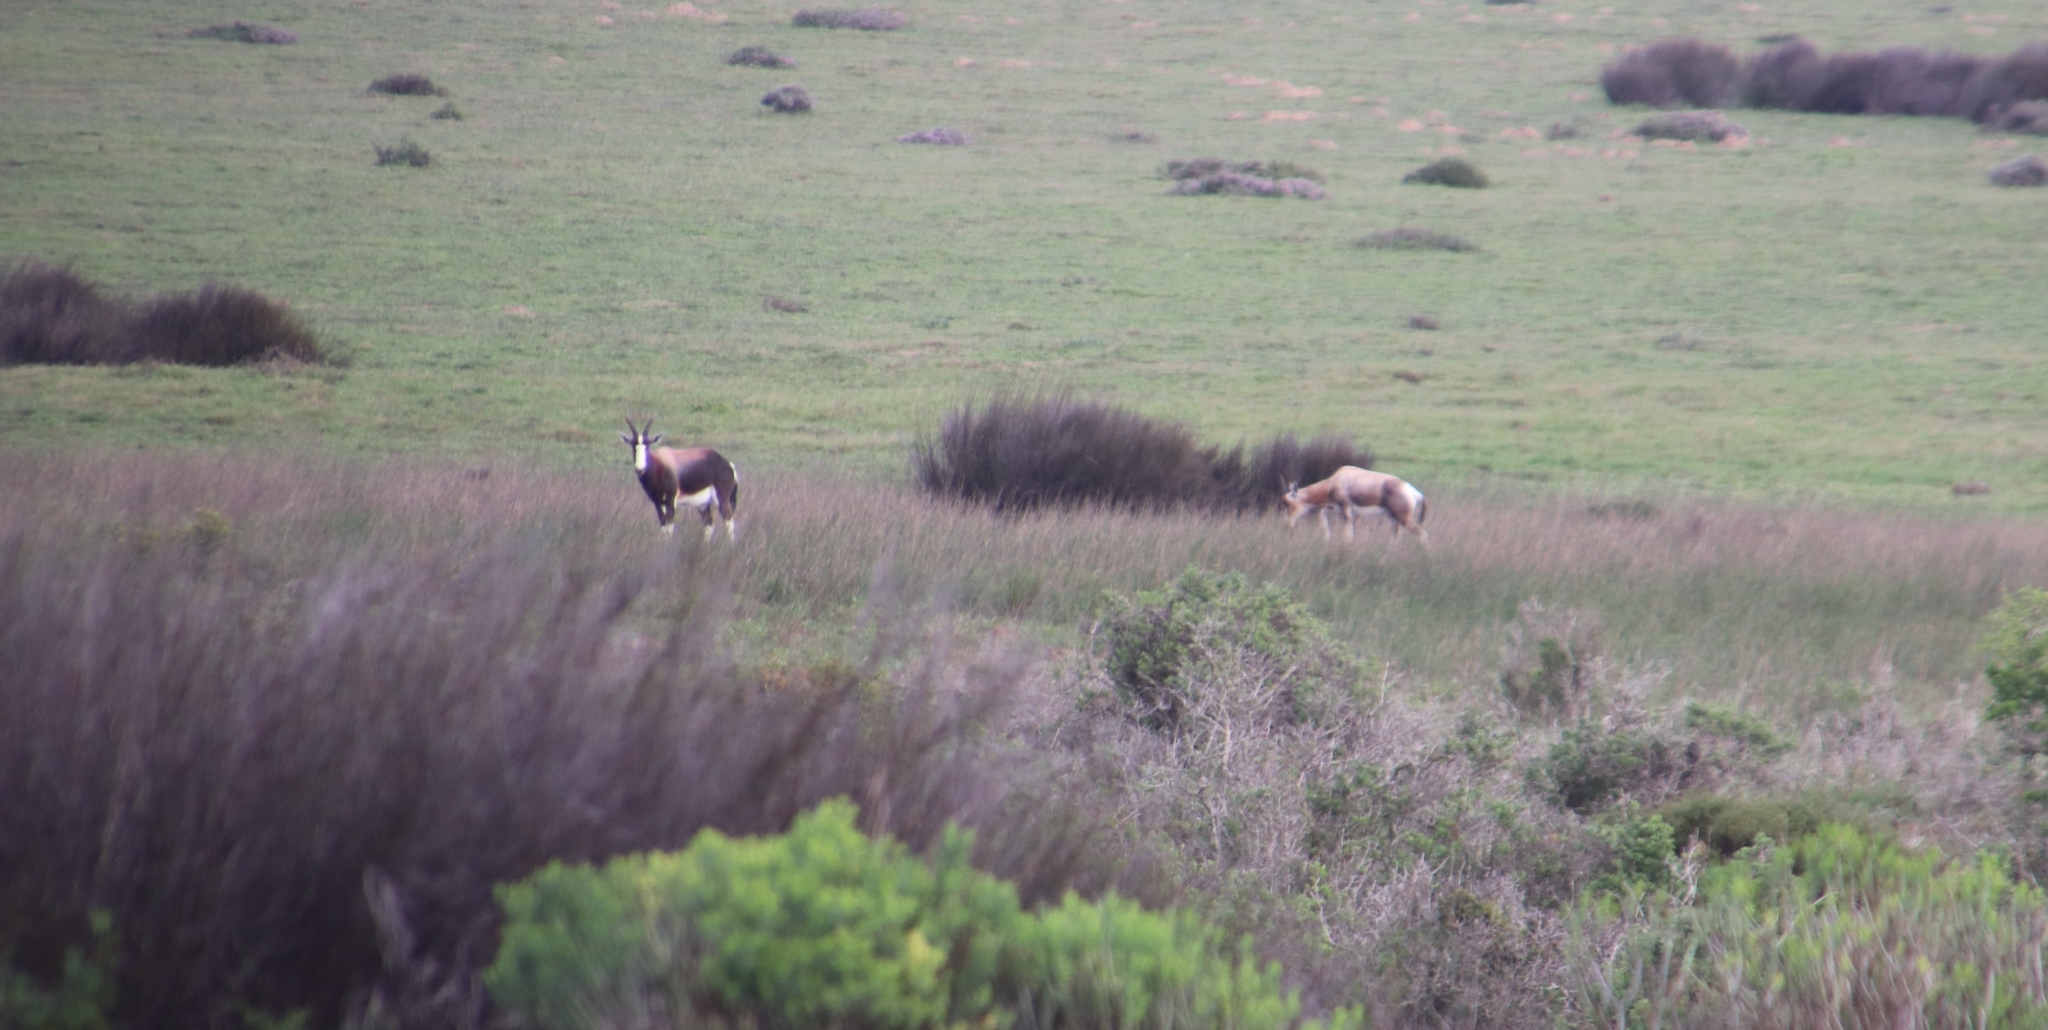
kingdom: Animalia
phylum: Chordata
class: Mammalia
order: Artiodactyla
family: Bovidae
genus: Damaliscus
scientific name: Damaliscus pygargus
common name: Bontebok
